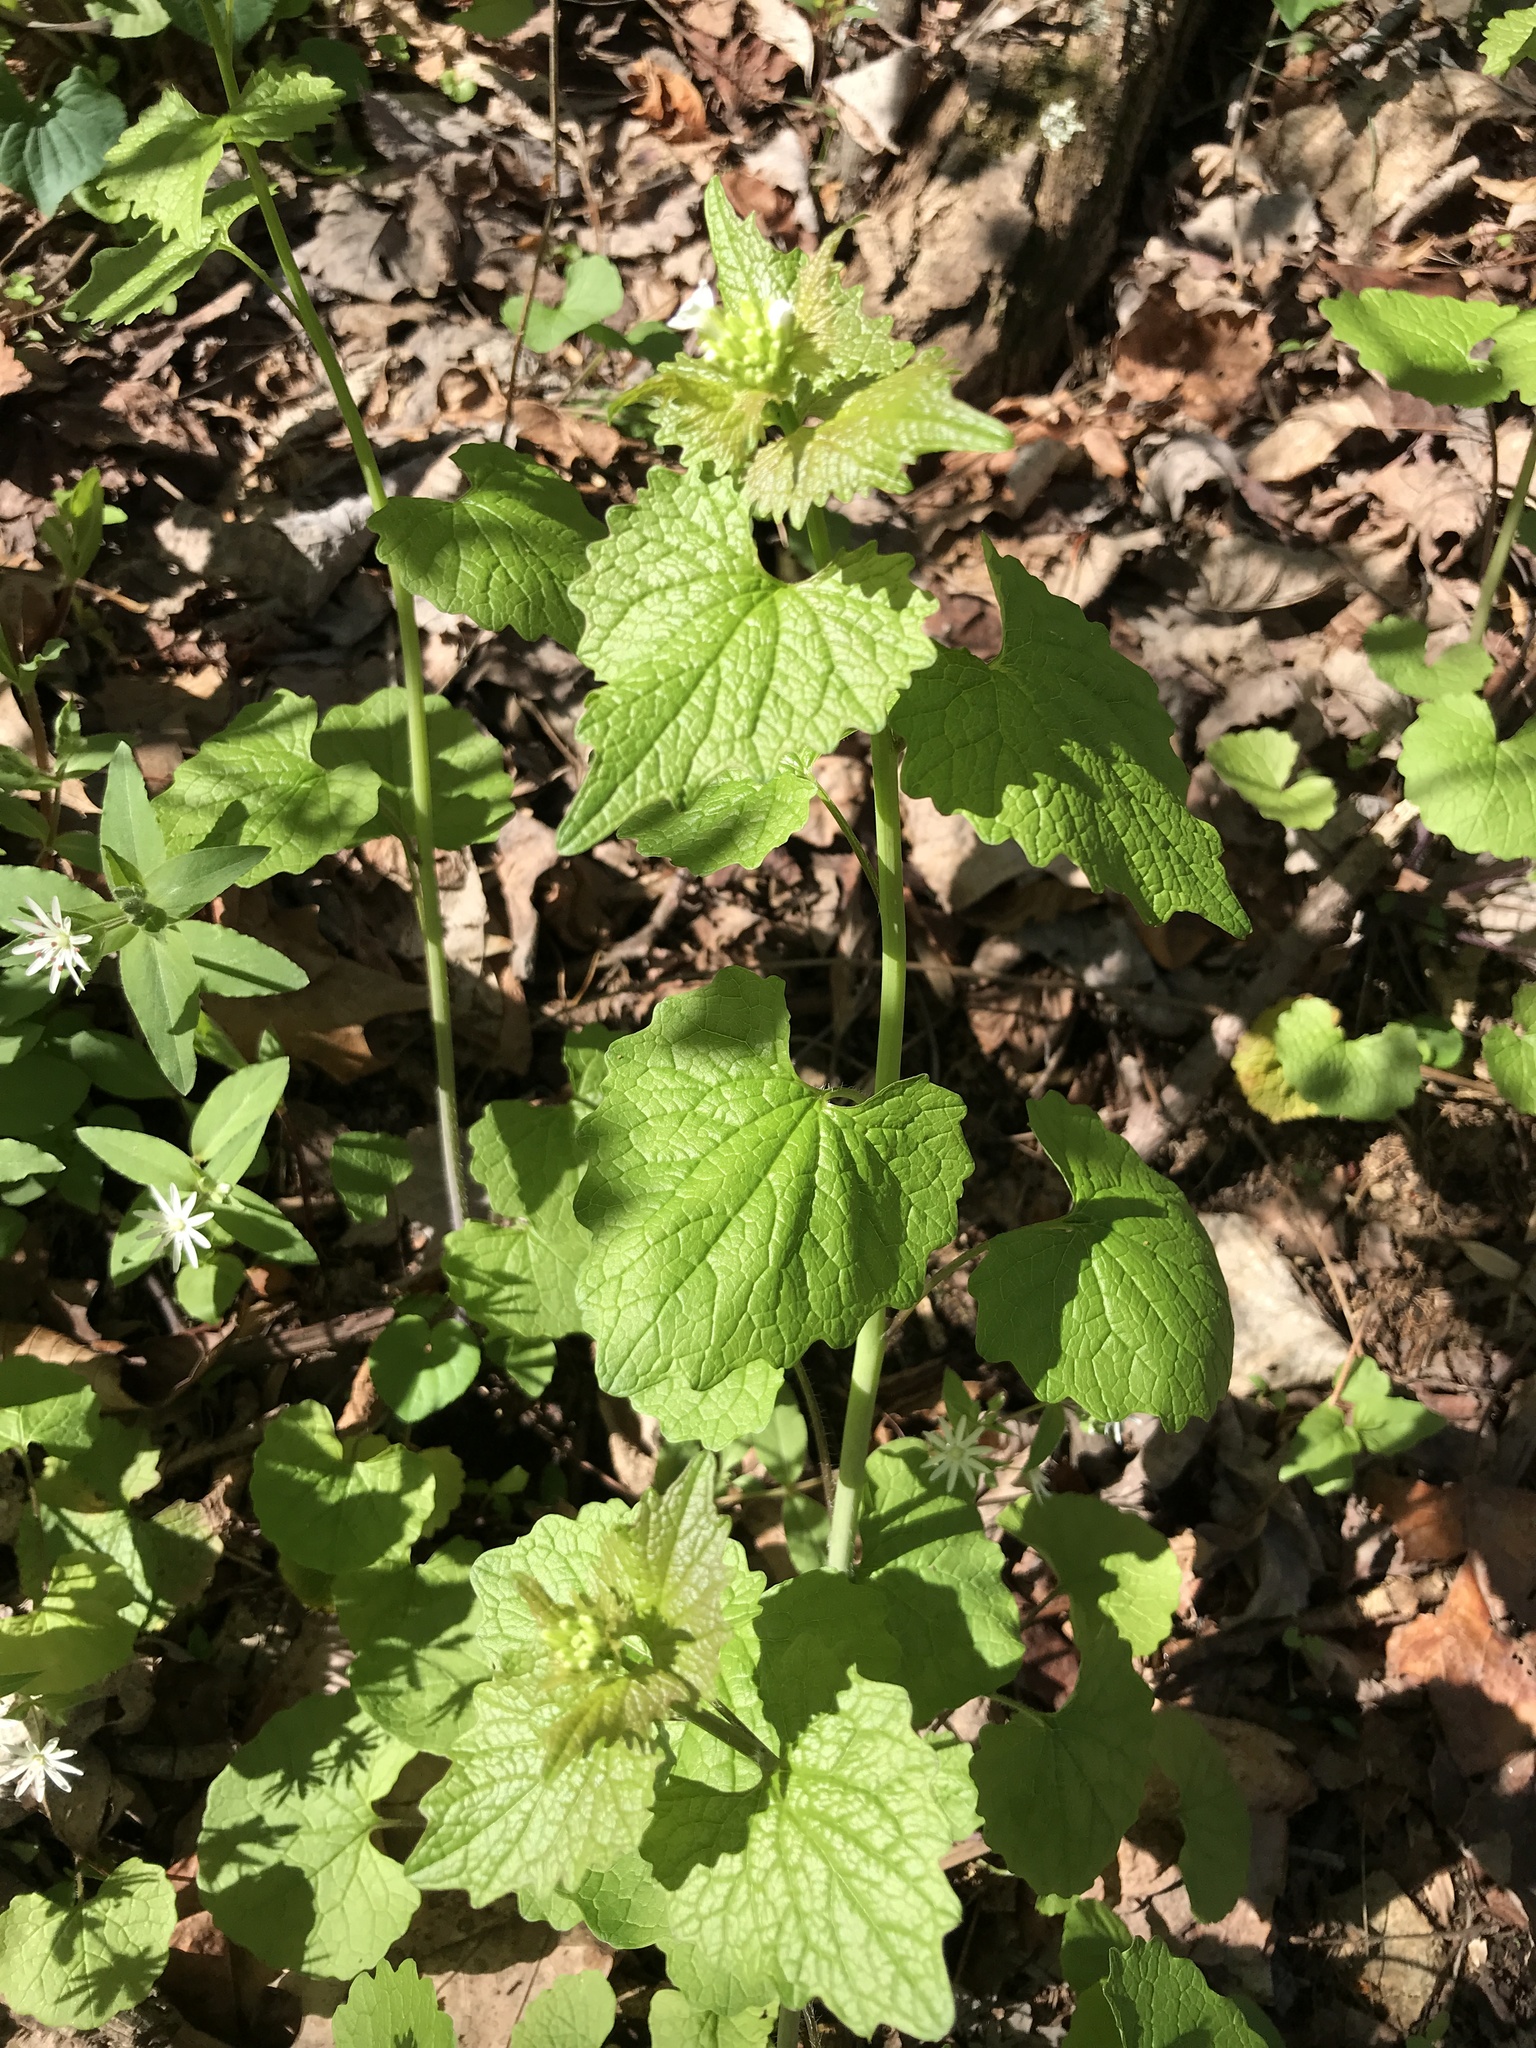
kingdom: Plantae
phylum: Tracheophyta
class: Magnoliopsida
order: Brassicales
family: Brassicaceae
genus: Alliaria
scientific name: Alliaria petiolata
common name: Garlic mustard
